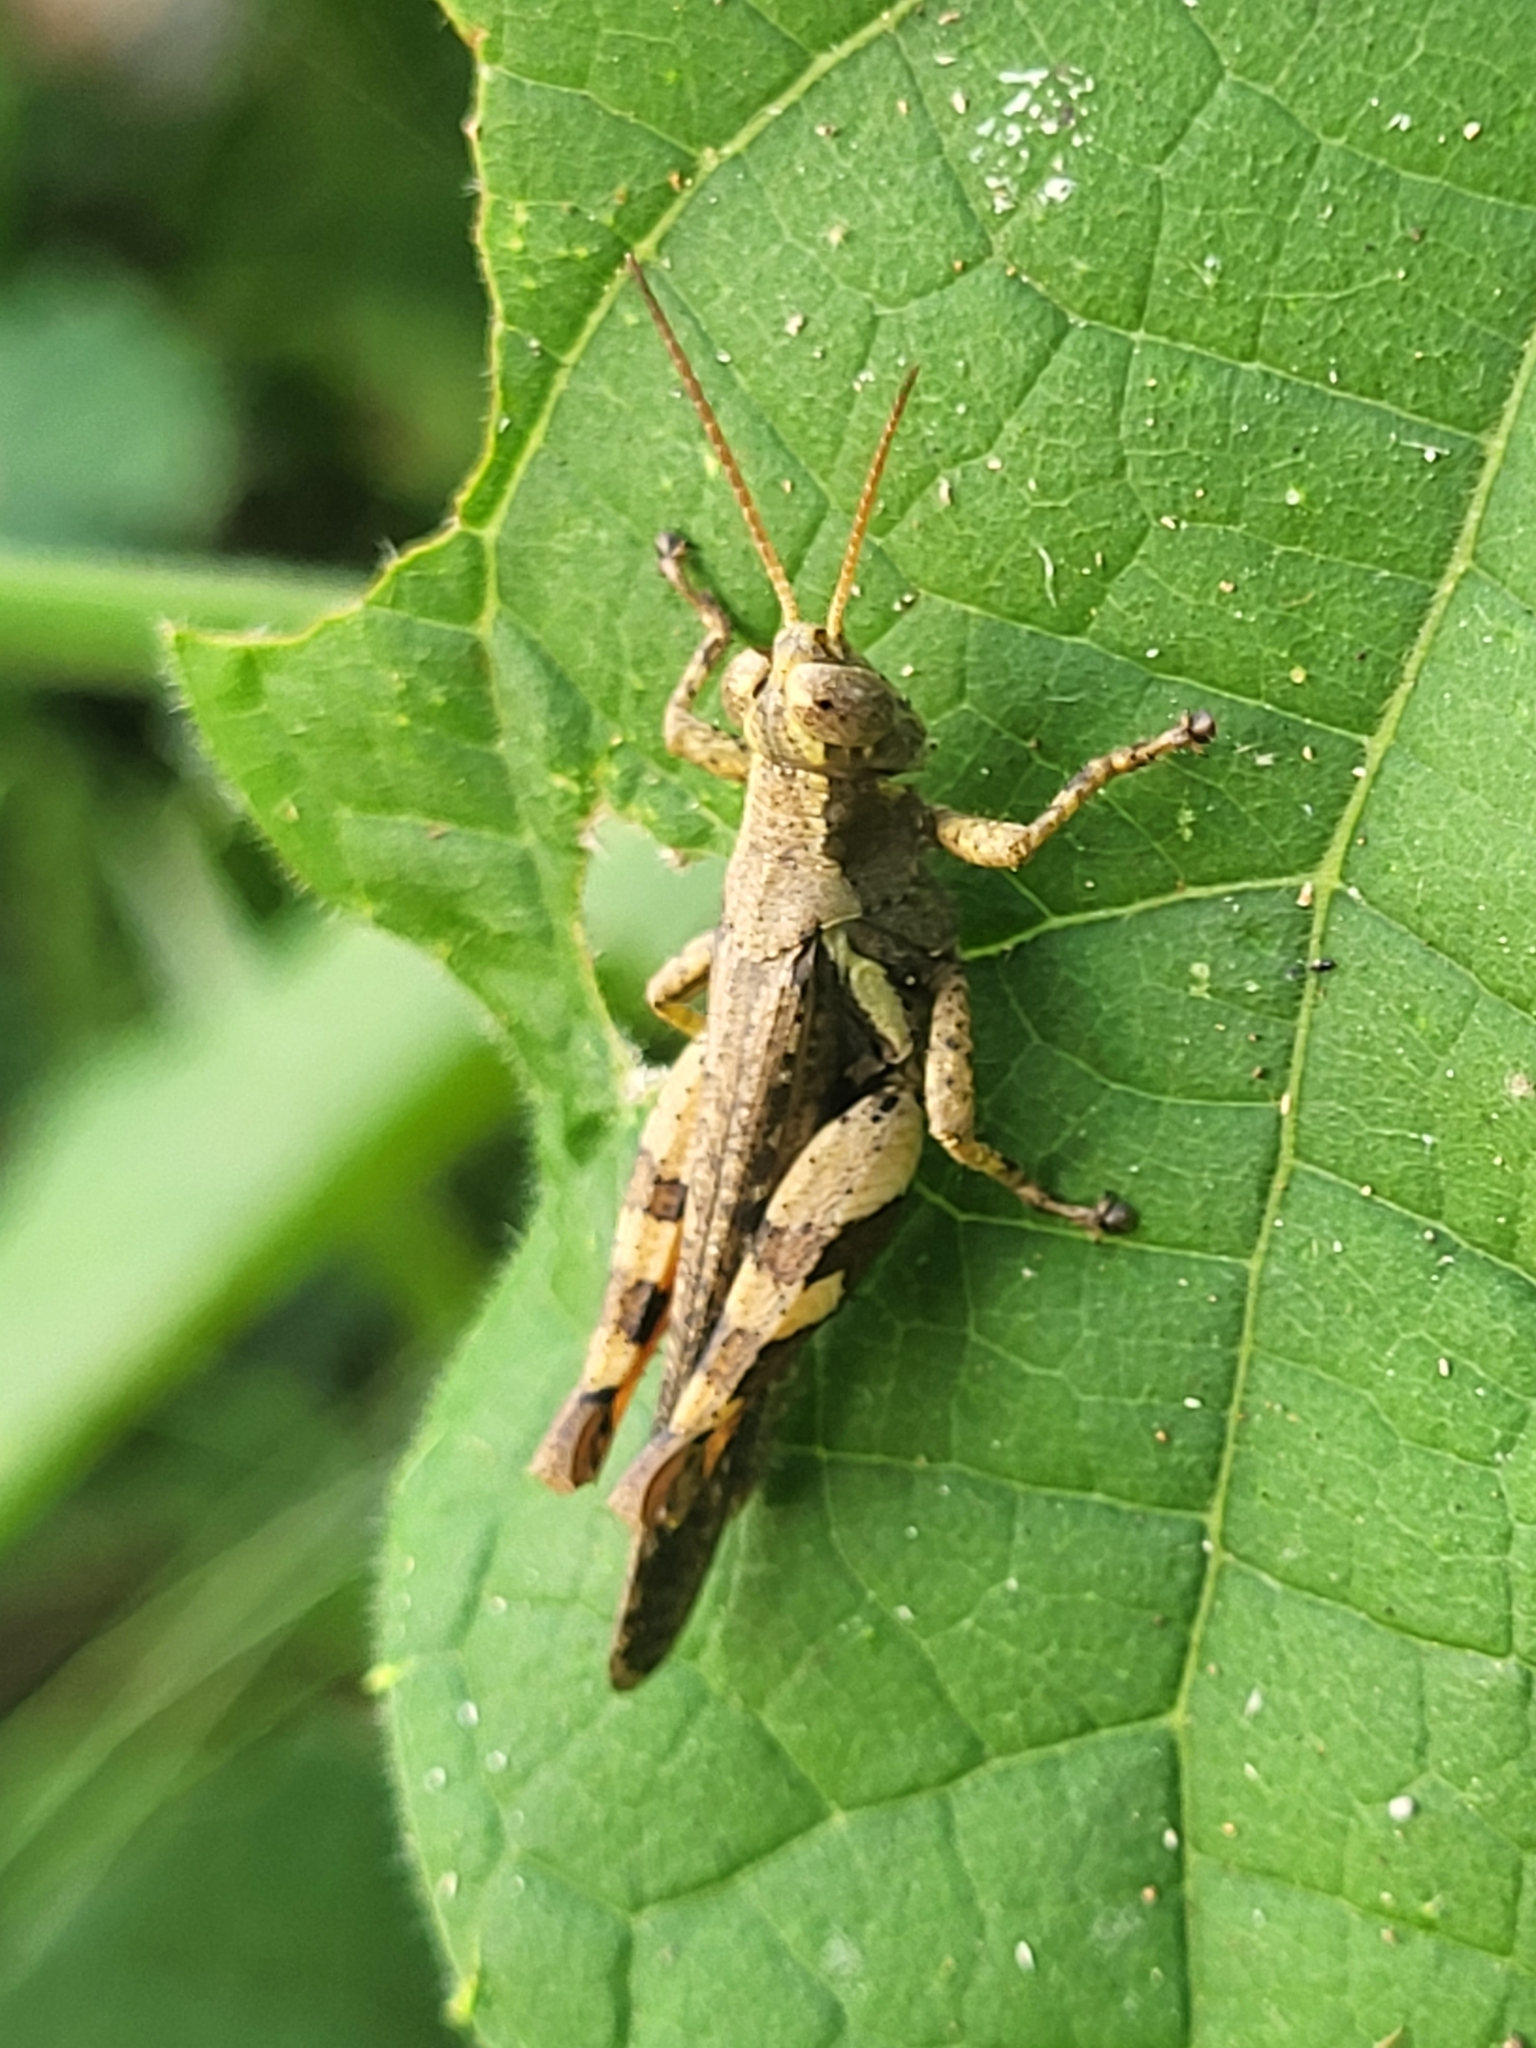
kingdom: Animalia
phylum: Arthropoda
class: Insecta
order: Orthoptera
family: Acrididae
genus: Xenocatantops
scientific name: Xenocatantops humile
